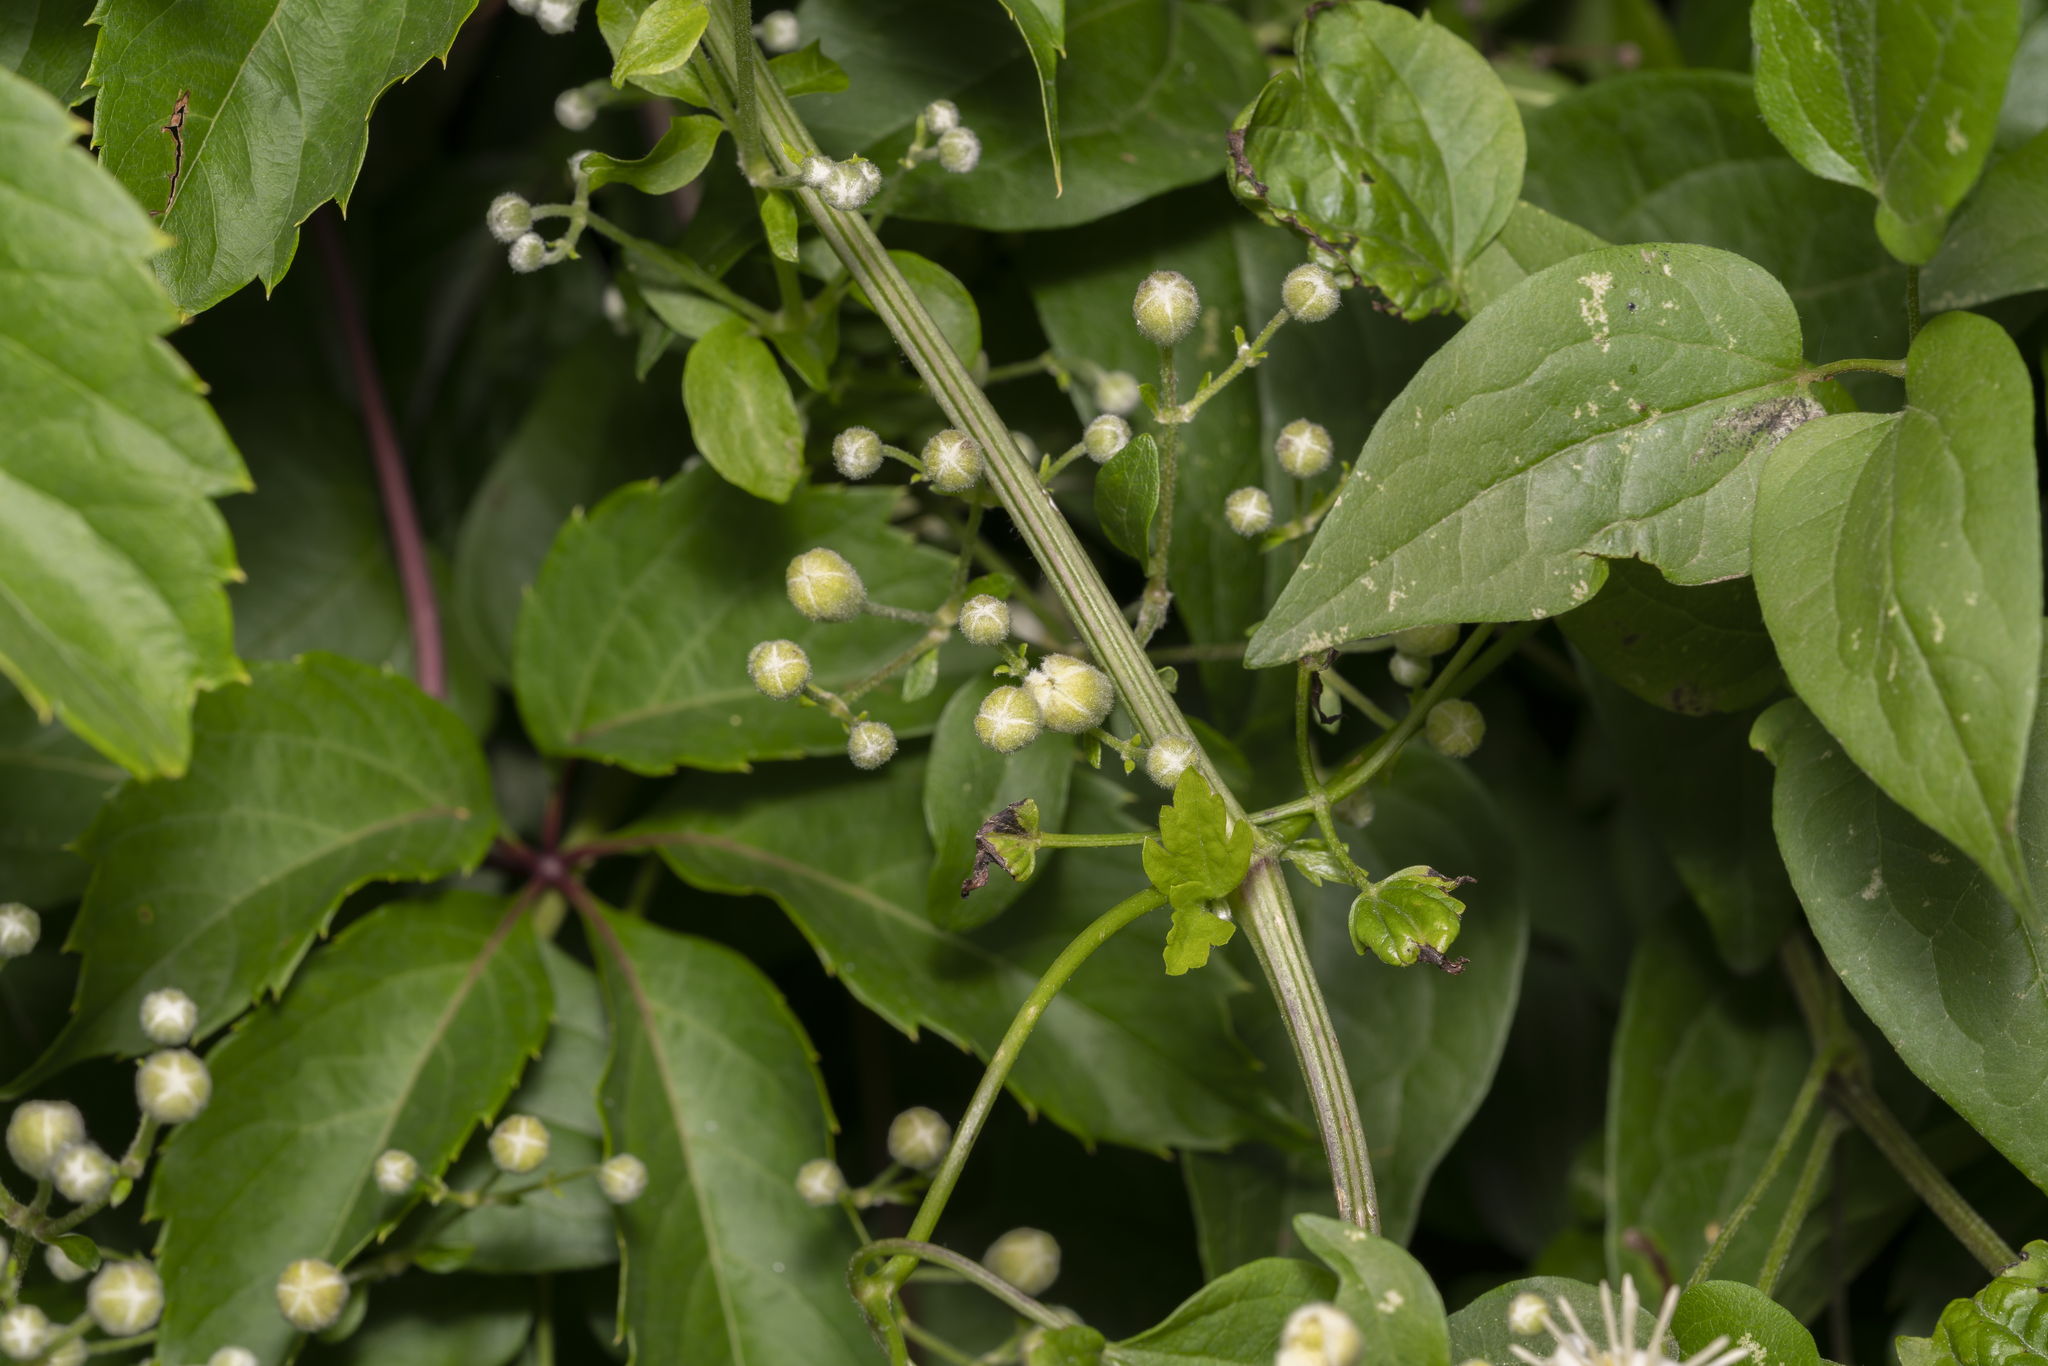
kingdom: Plantae
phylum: Tracheophyta
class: Magnoliopsida
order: Ranunculales
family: Ranunculaceae
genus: Clematis
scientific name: Clematis vitalba
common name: Evergreen clematis
